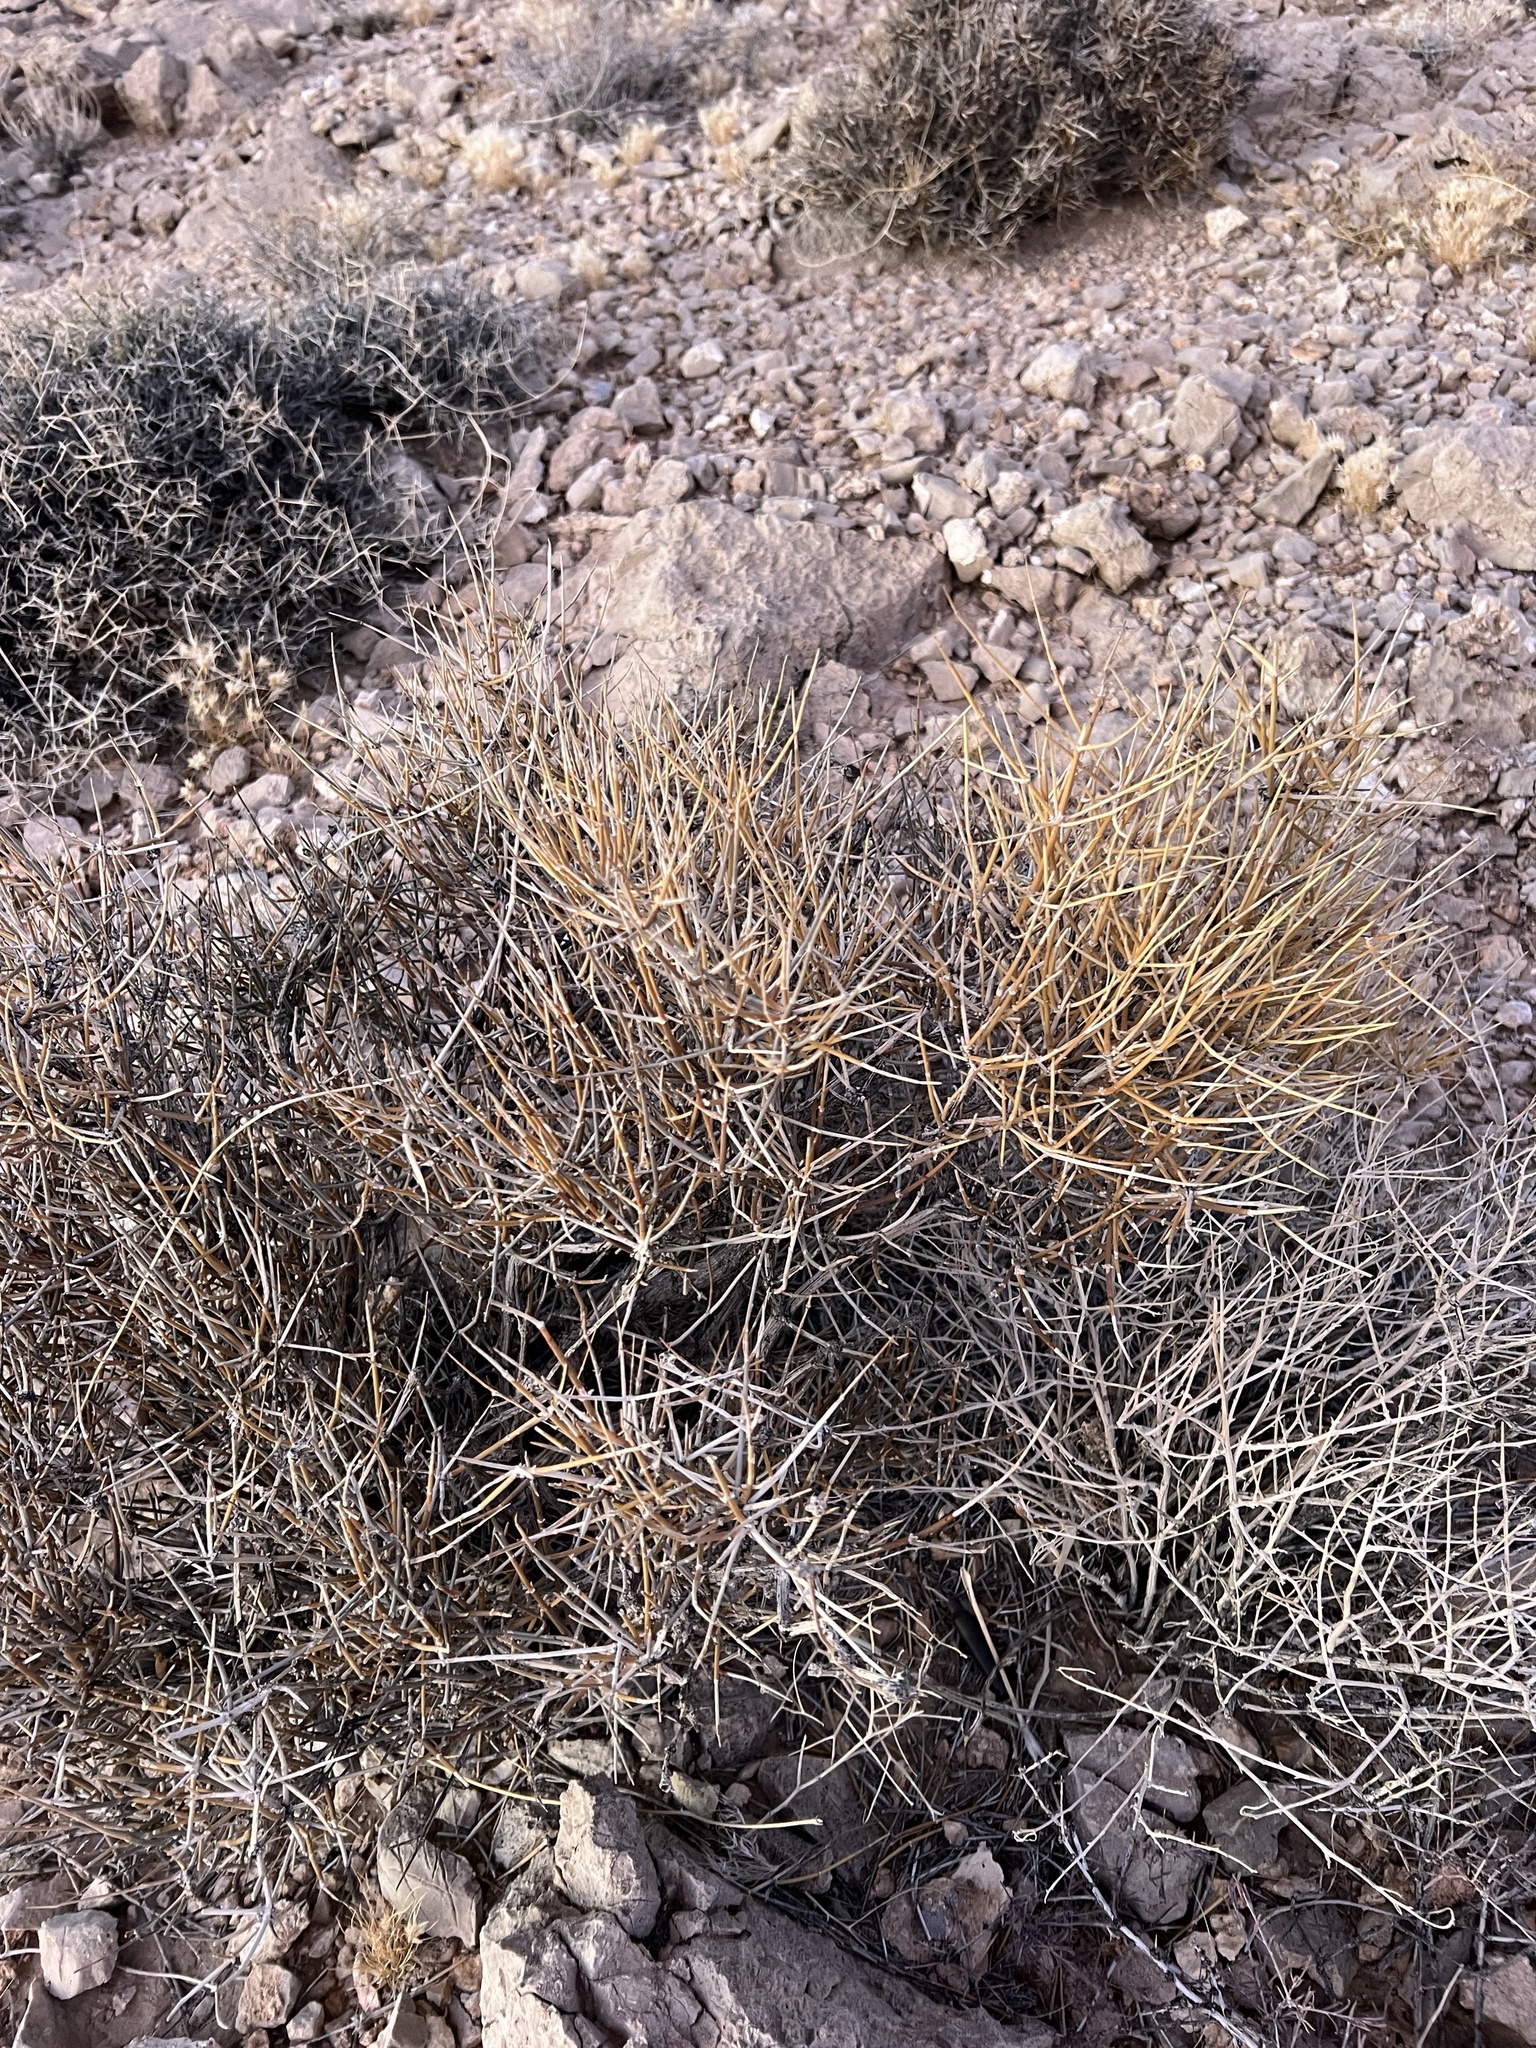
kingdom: Plantae
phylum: Tracheophyta
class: Gnetopsida
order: Ephedrales
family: Ephedraceae
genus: Ephedra
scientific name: Ephedra nevadensis
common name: Gray ephedra
